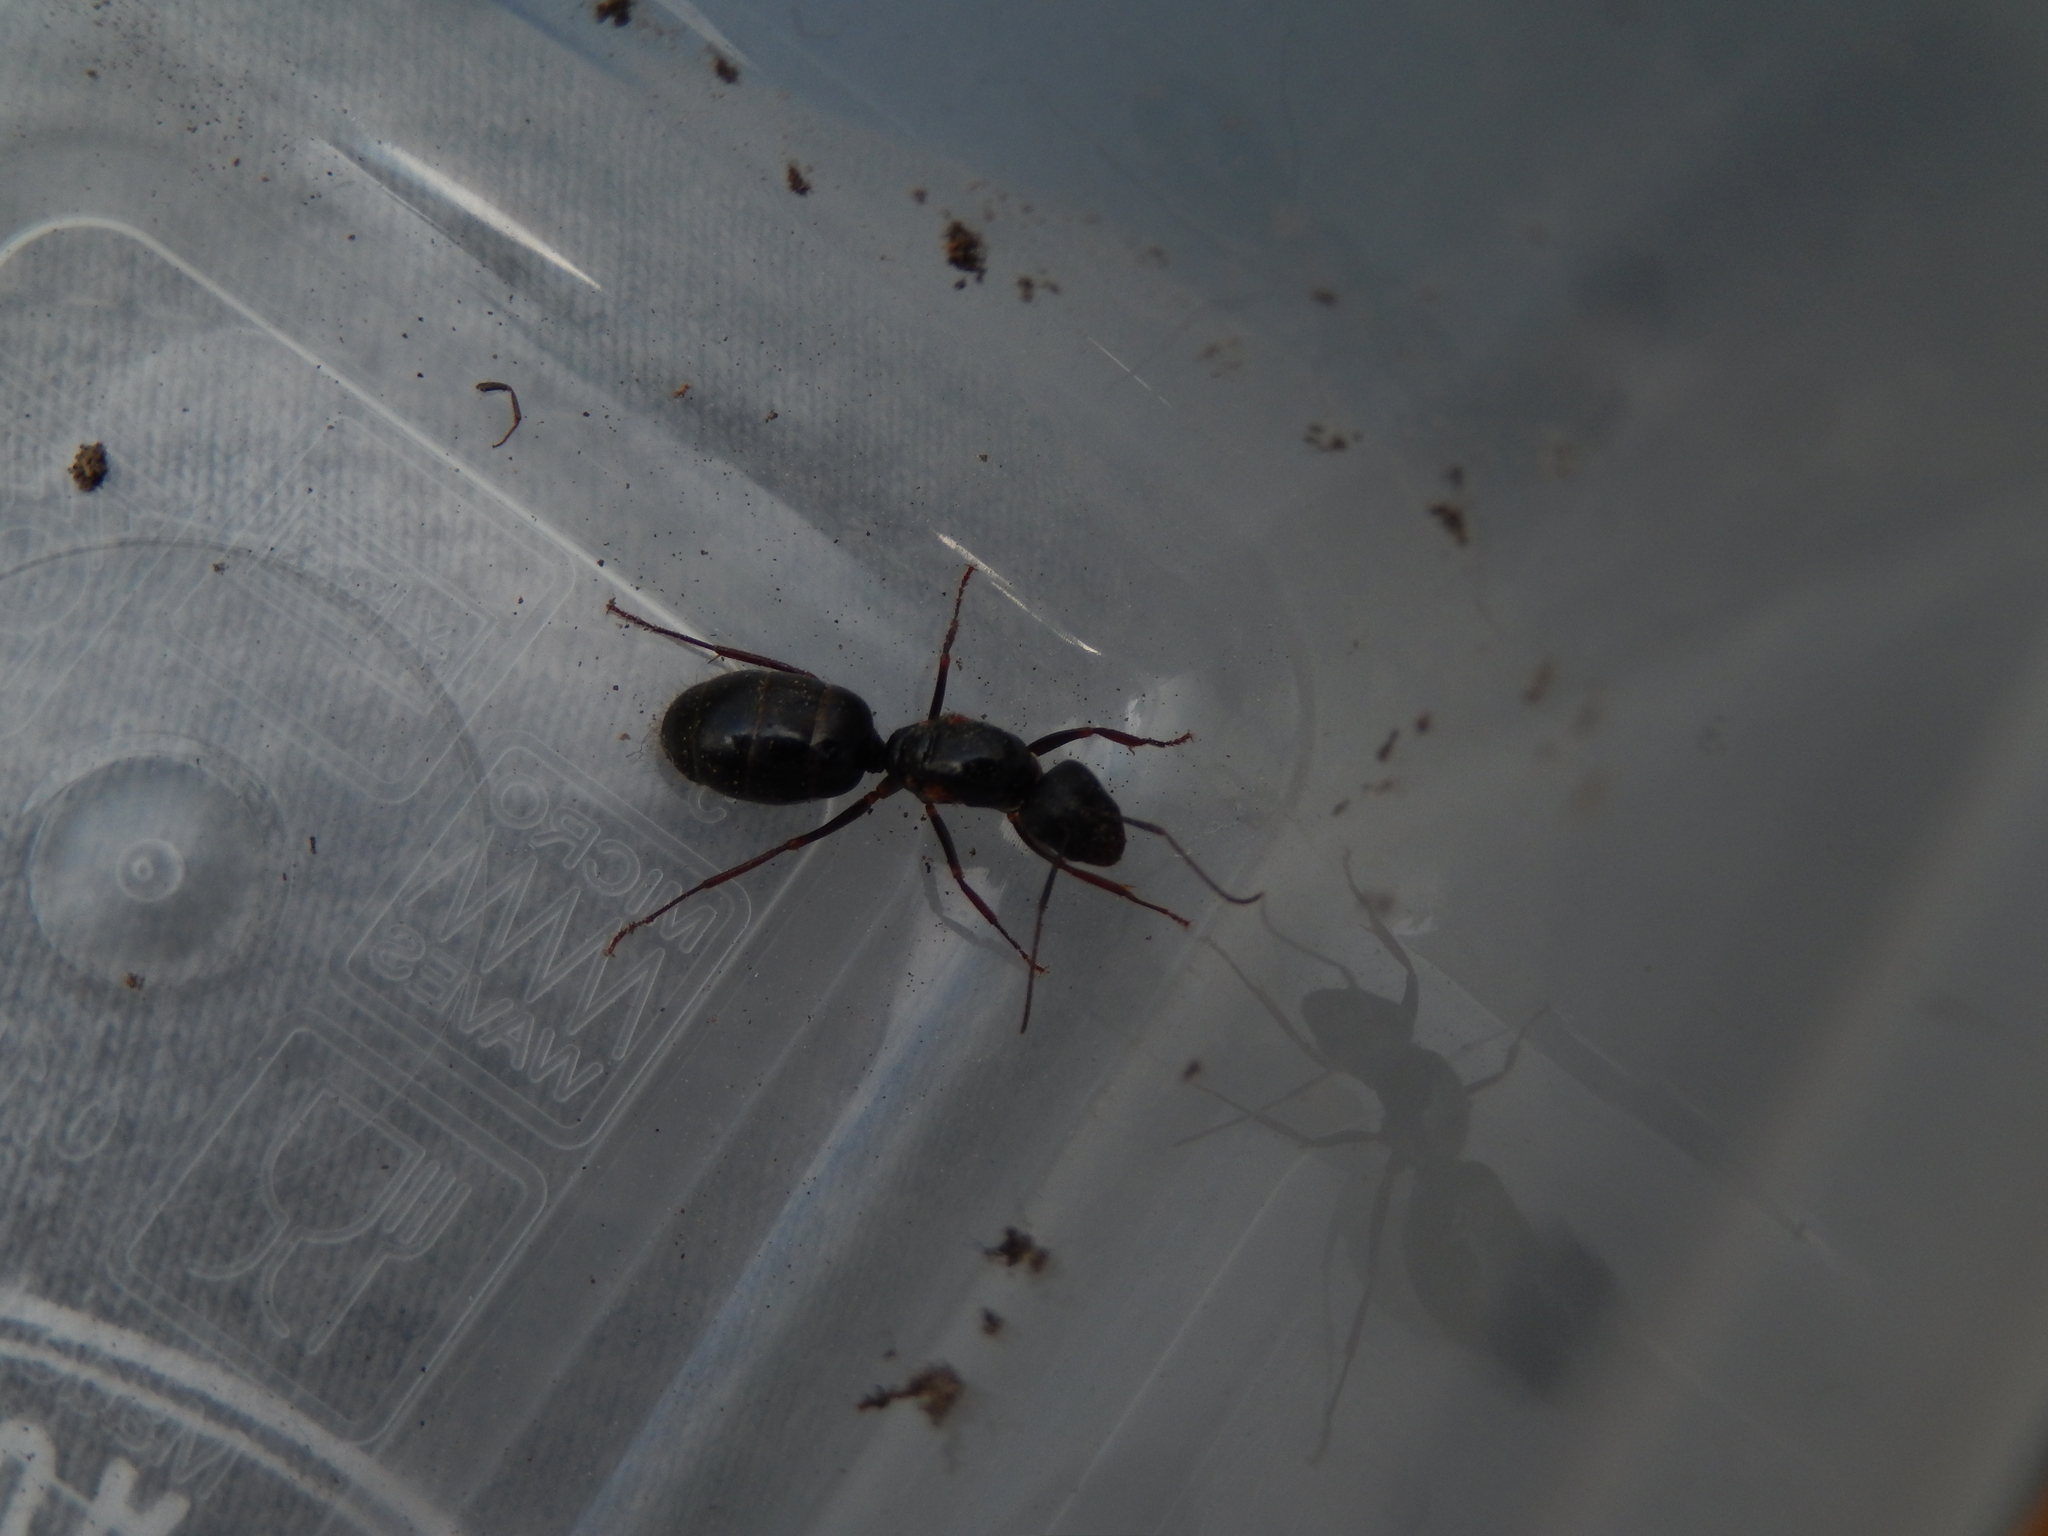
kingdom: Animalia
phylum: Arthropoda
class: Insecta
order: Hymenoptera
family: Formicidae
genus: Camponotus
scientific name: Camponotus aethiops
